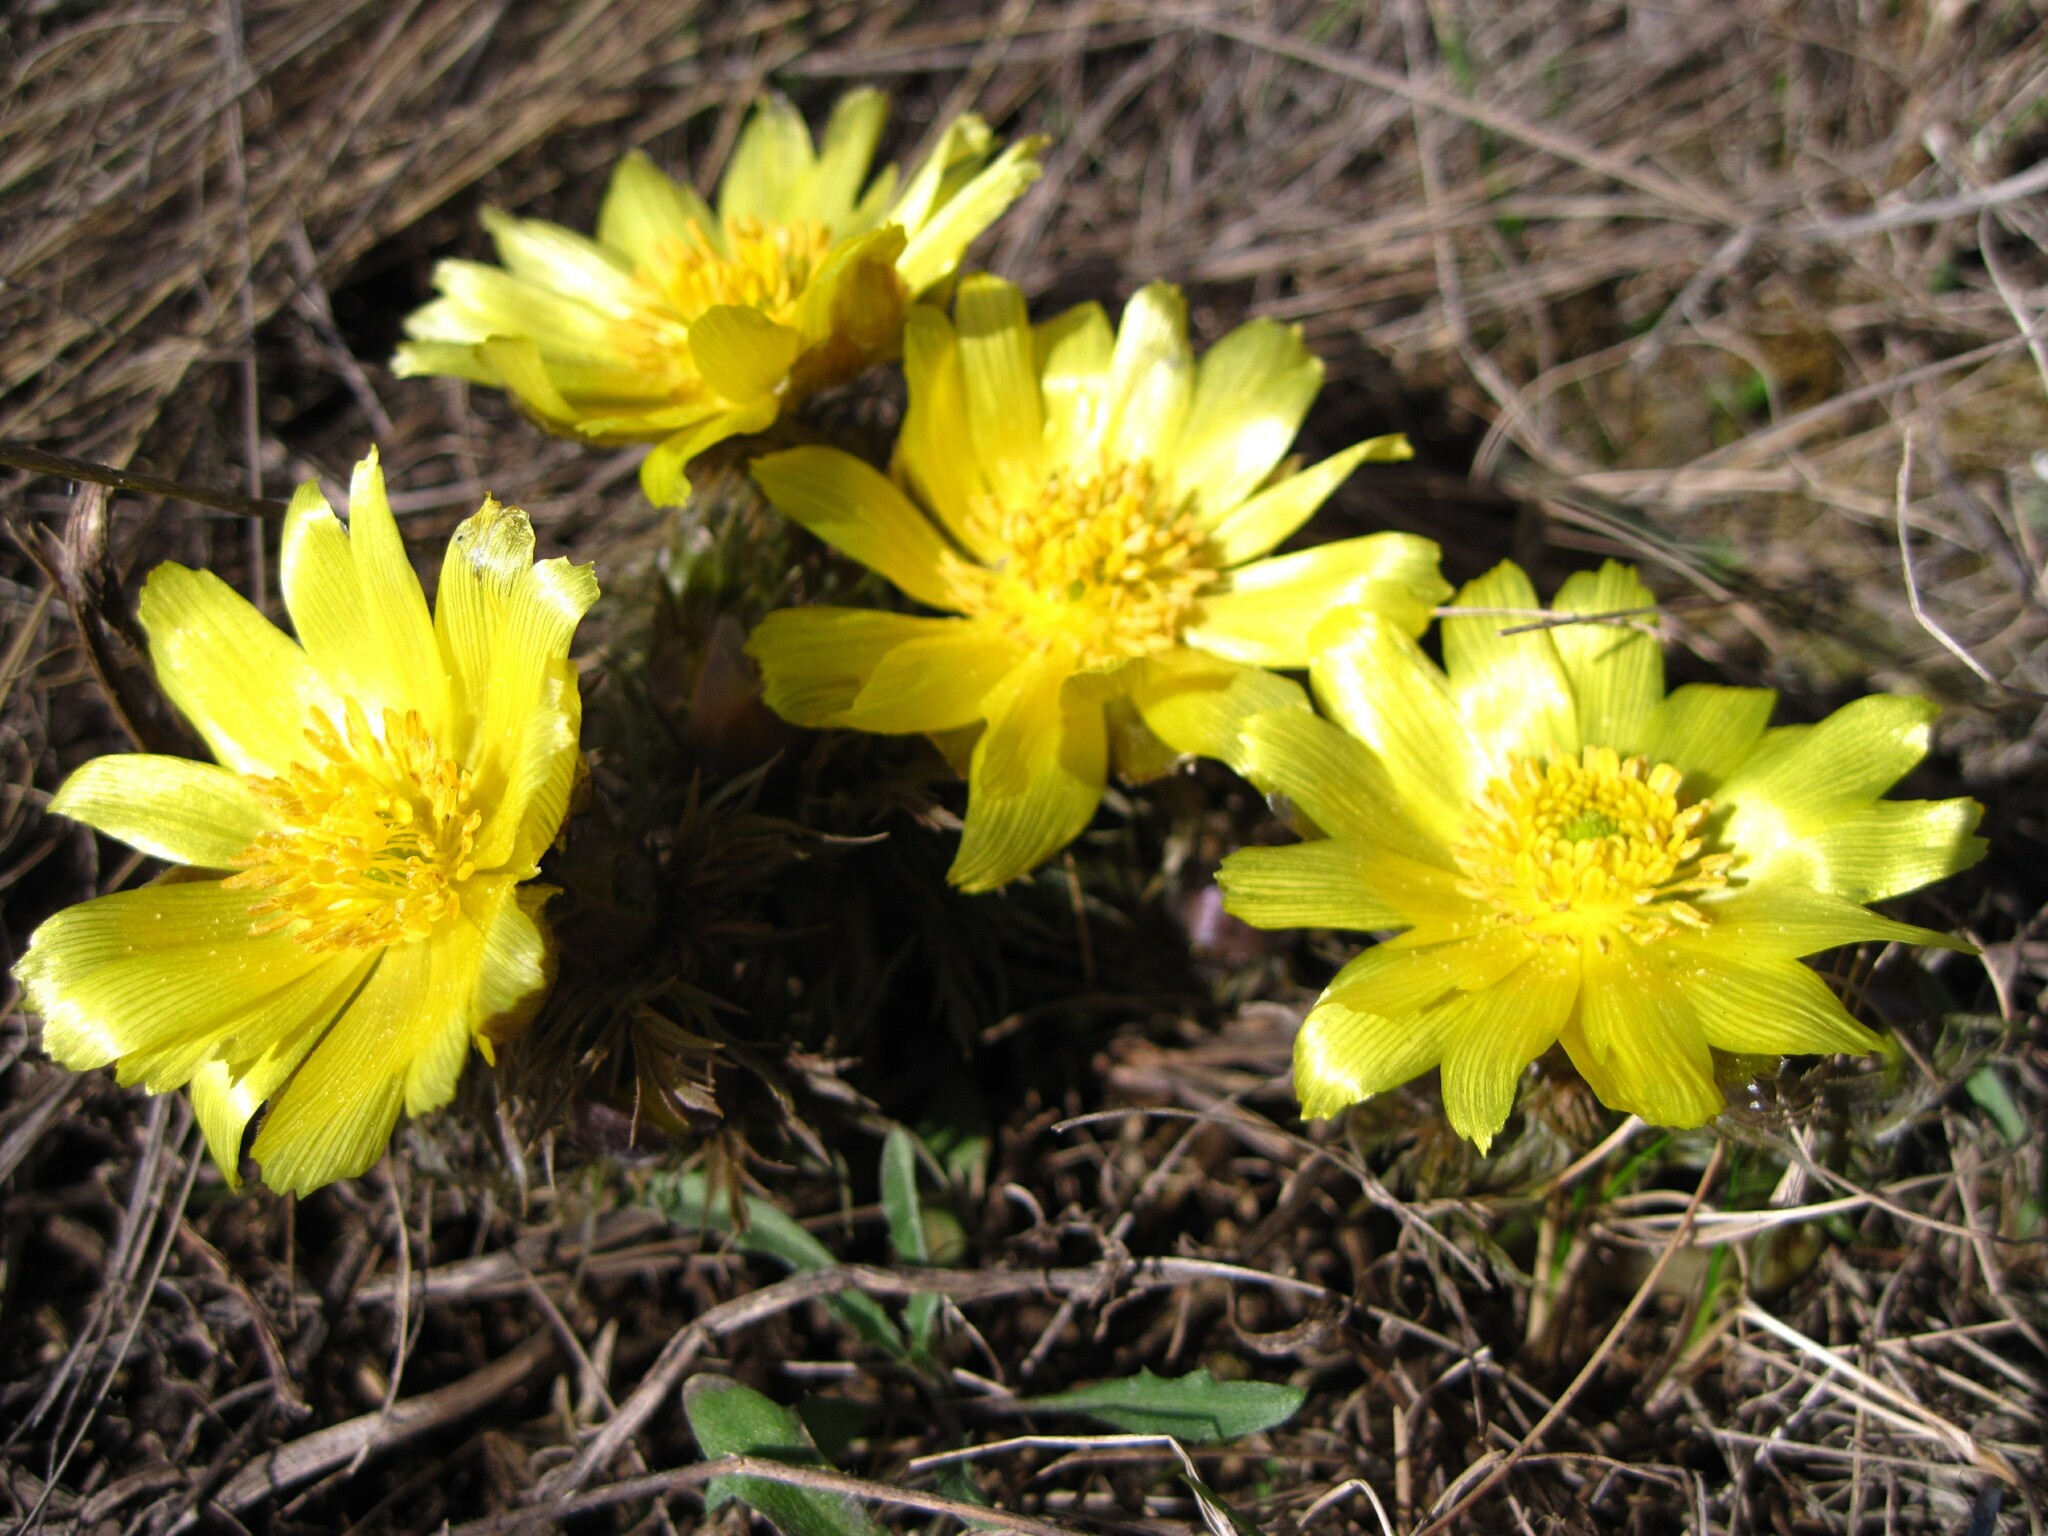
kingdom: Plantae
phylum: Tracheophyta
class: Magnoliopsida
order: Ranunculales
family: Ranunculaceae
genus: Adonis
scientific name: Adonis volgensis
